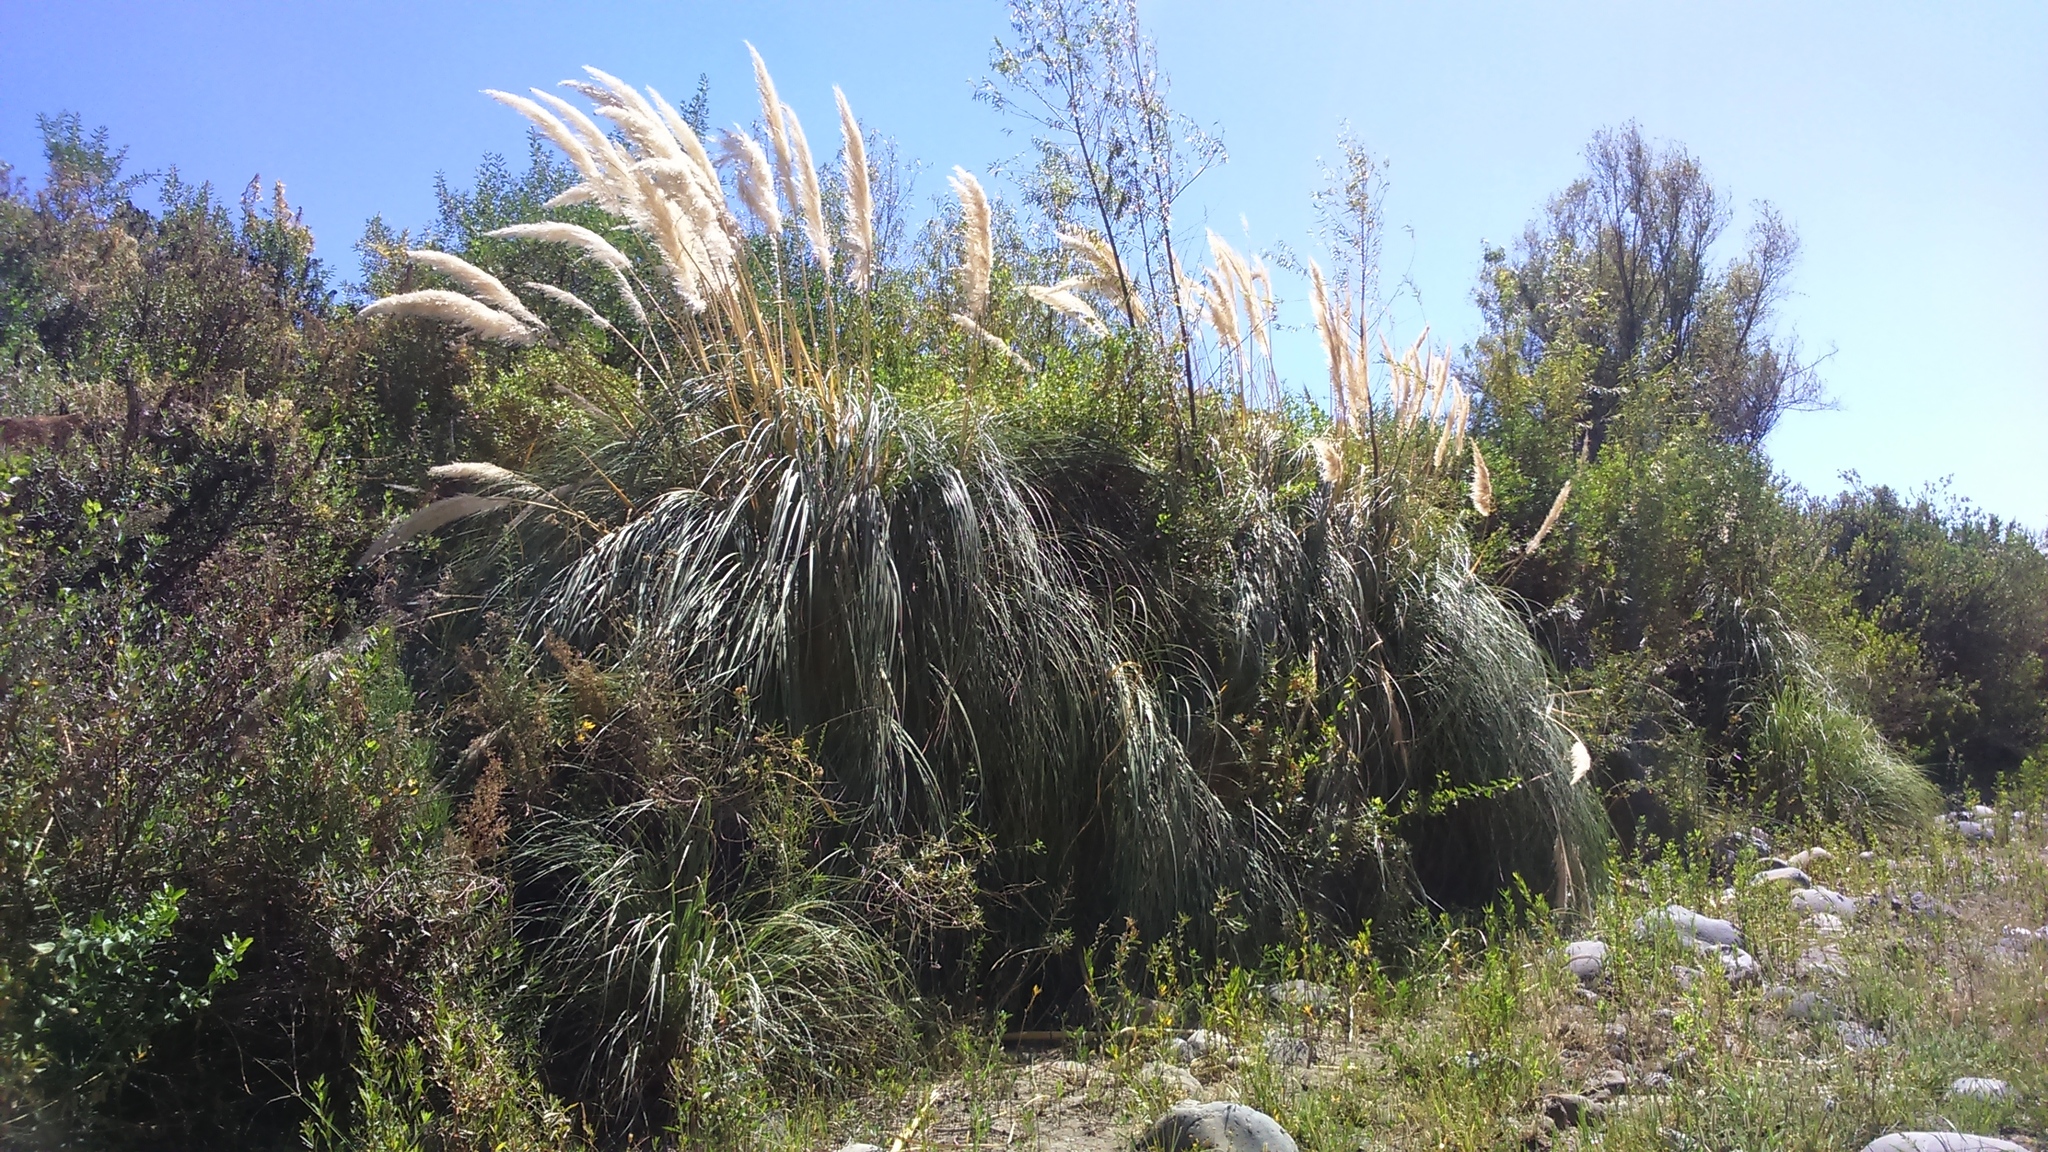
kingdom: Plantae
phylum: Tracheophyta
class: Liliopsida
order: Poales
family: Poaceae
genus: Cortaderia
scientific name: Cortaderia selloana
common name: Uruguayan pampas grass
